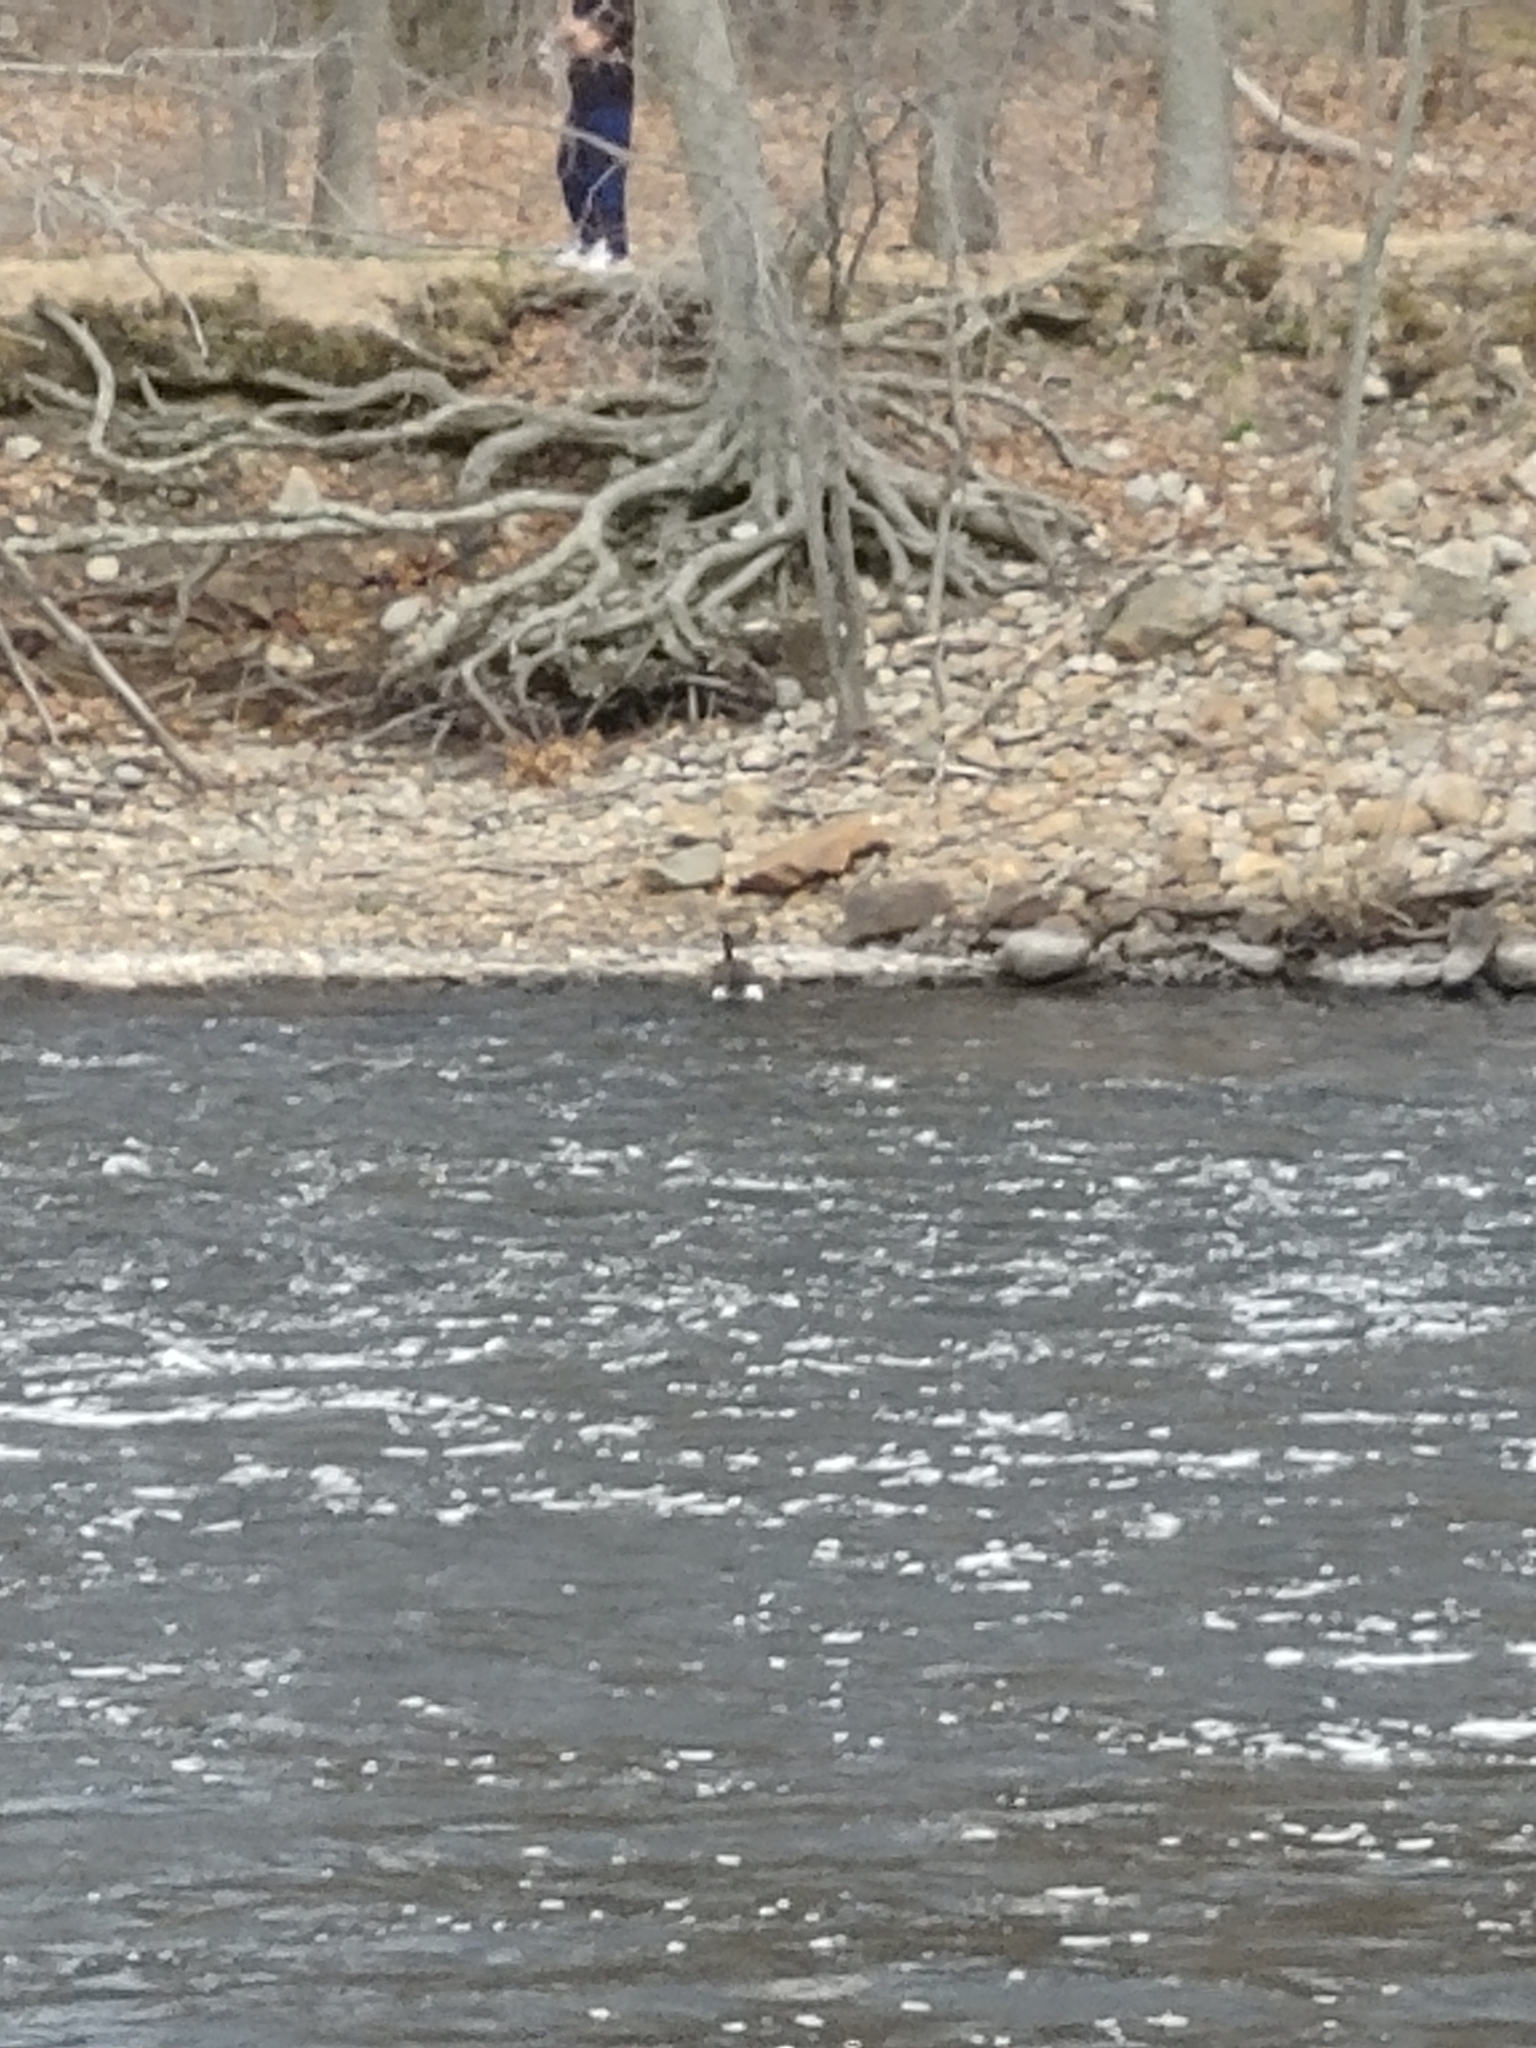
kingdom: Animalia
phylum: Chordata
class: Aves
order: Anseriformes
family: Anatidae
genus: Branta
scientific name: Branta canadensis
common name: Canada goose
